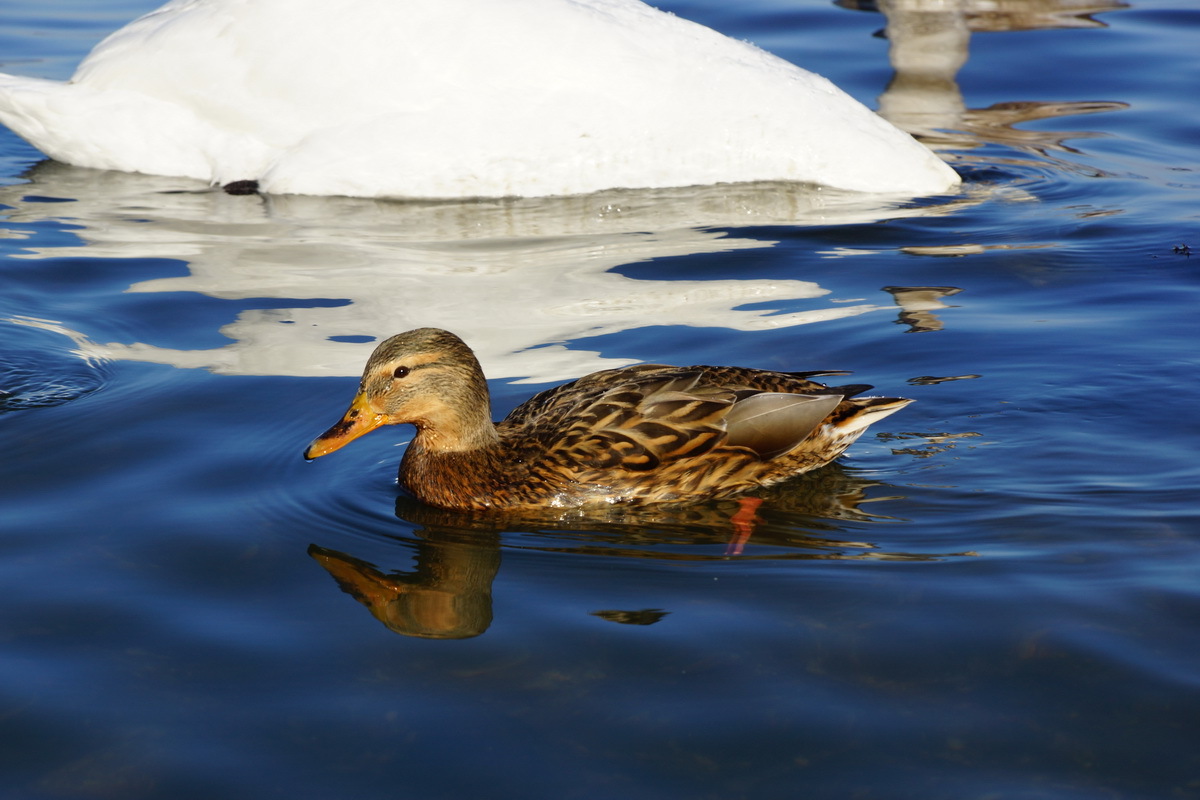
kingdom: Animalia
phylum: Chordata
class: Aves
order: Anseriformes
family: Anatidae
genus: Anas
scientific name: Anas platyrhynchos
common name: Mallard
